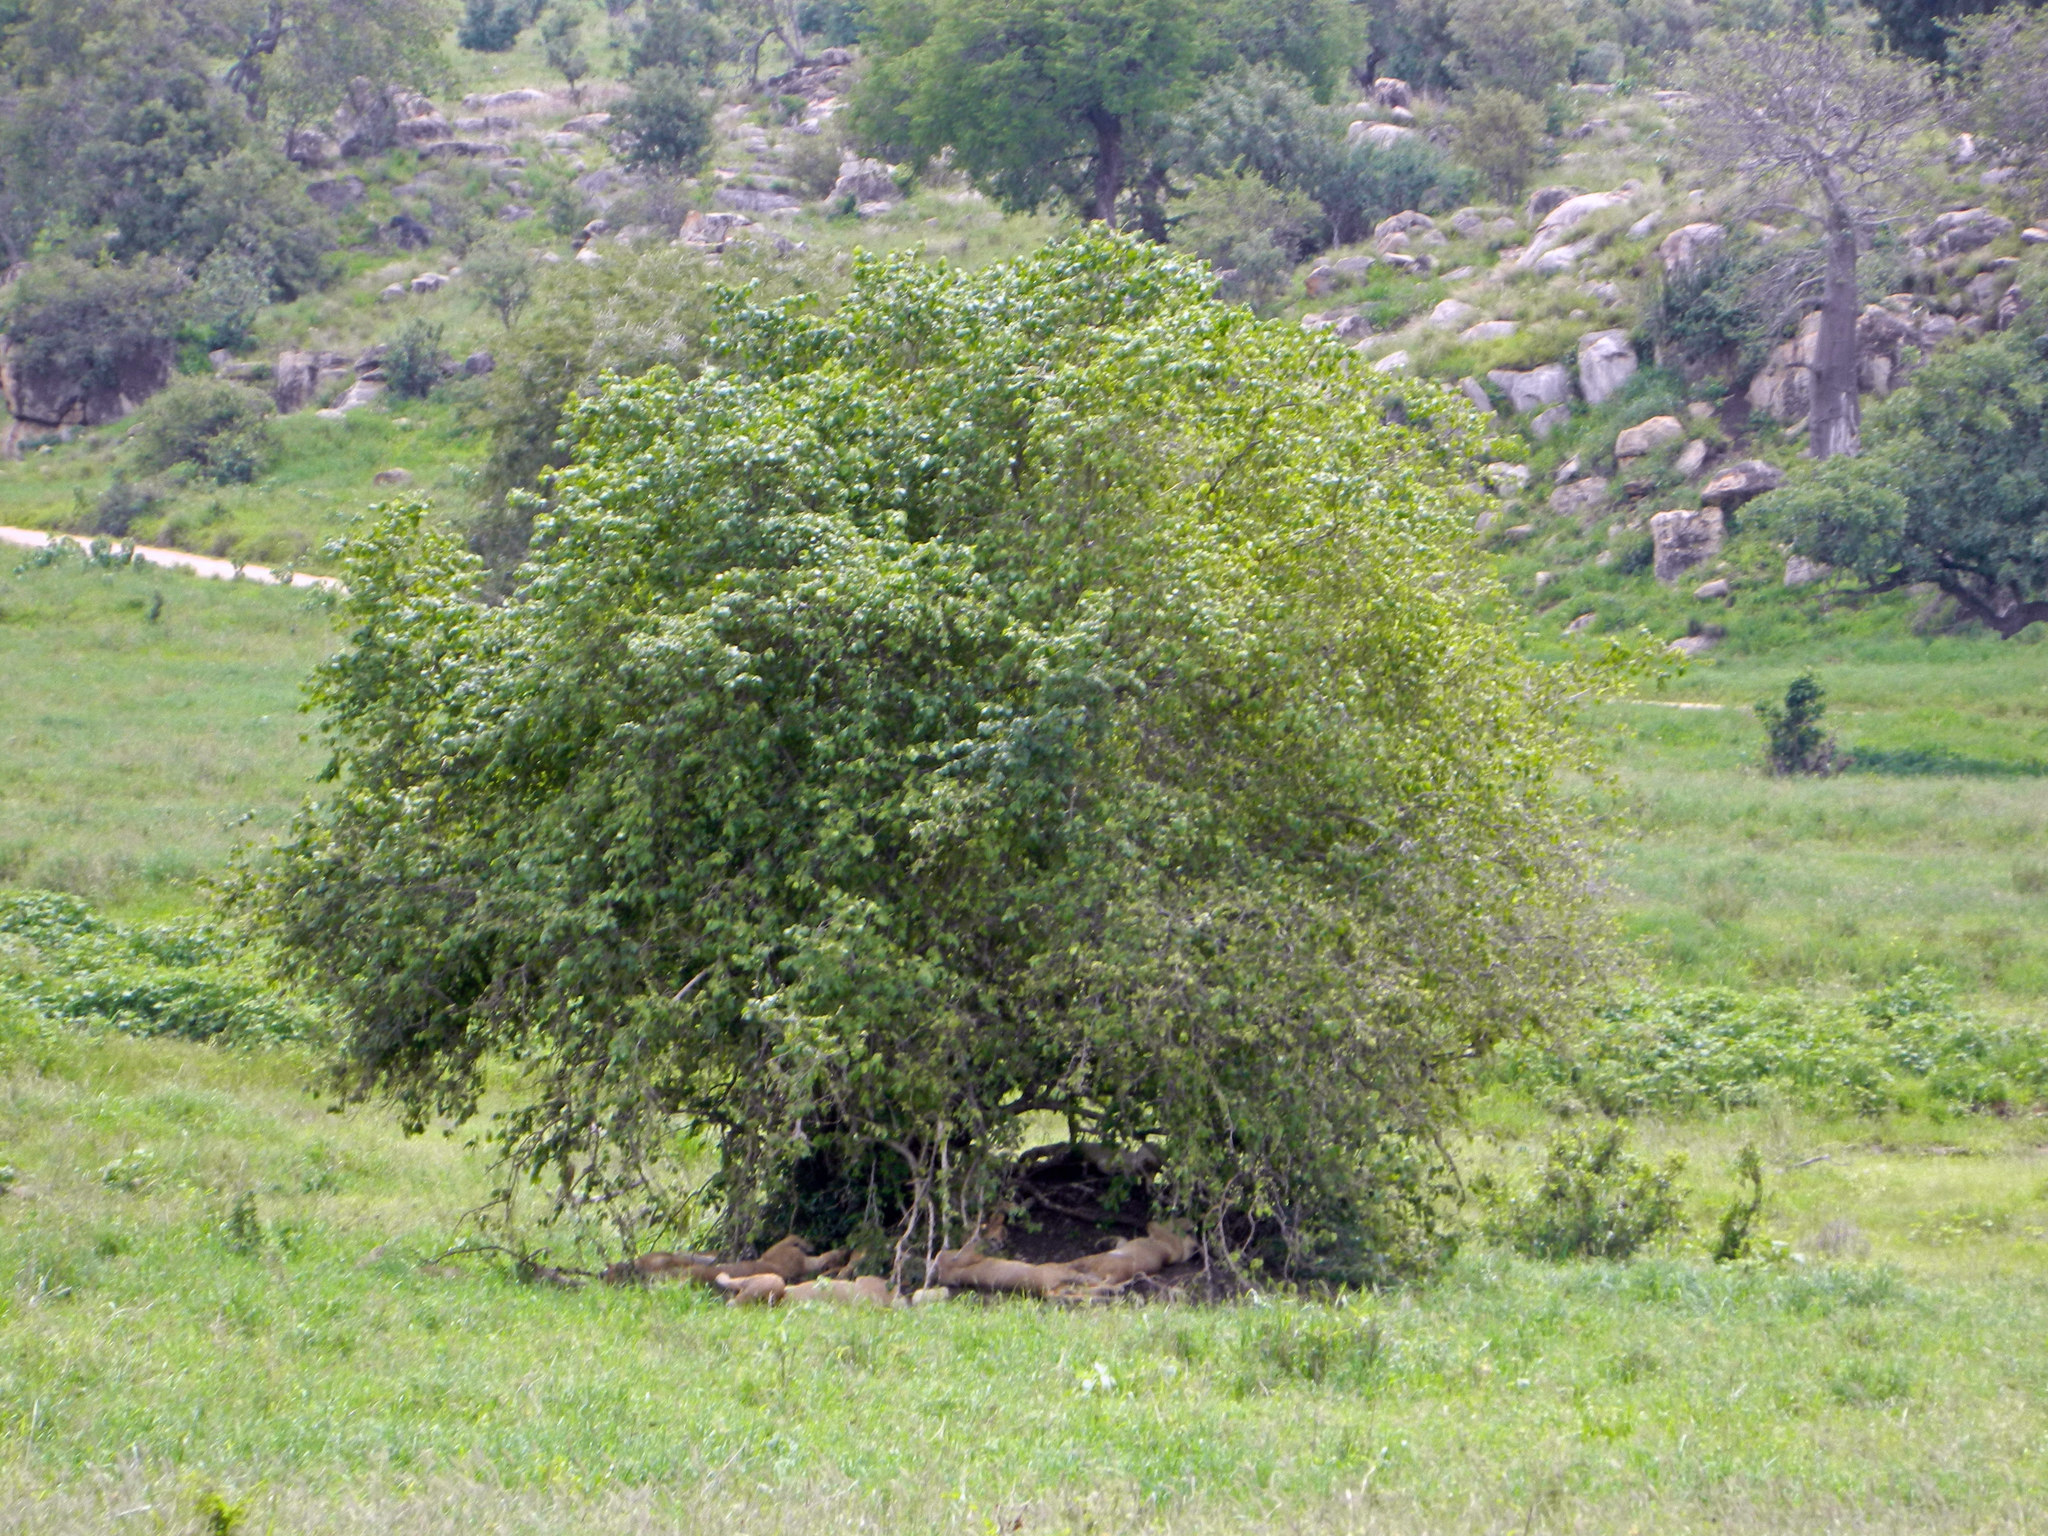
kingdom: Animalia
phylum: Chordata
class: Mammalia
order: Carnivora
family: Felidae
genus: Panthera
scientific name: Panthera leo
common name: Lion
